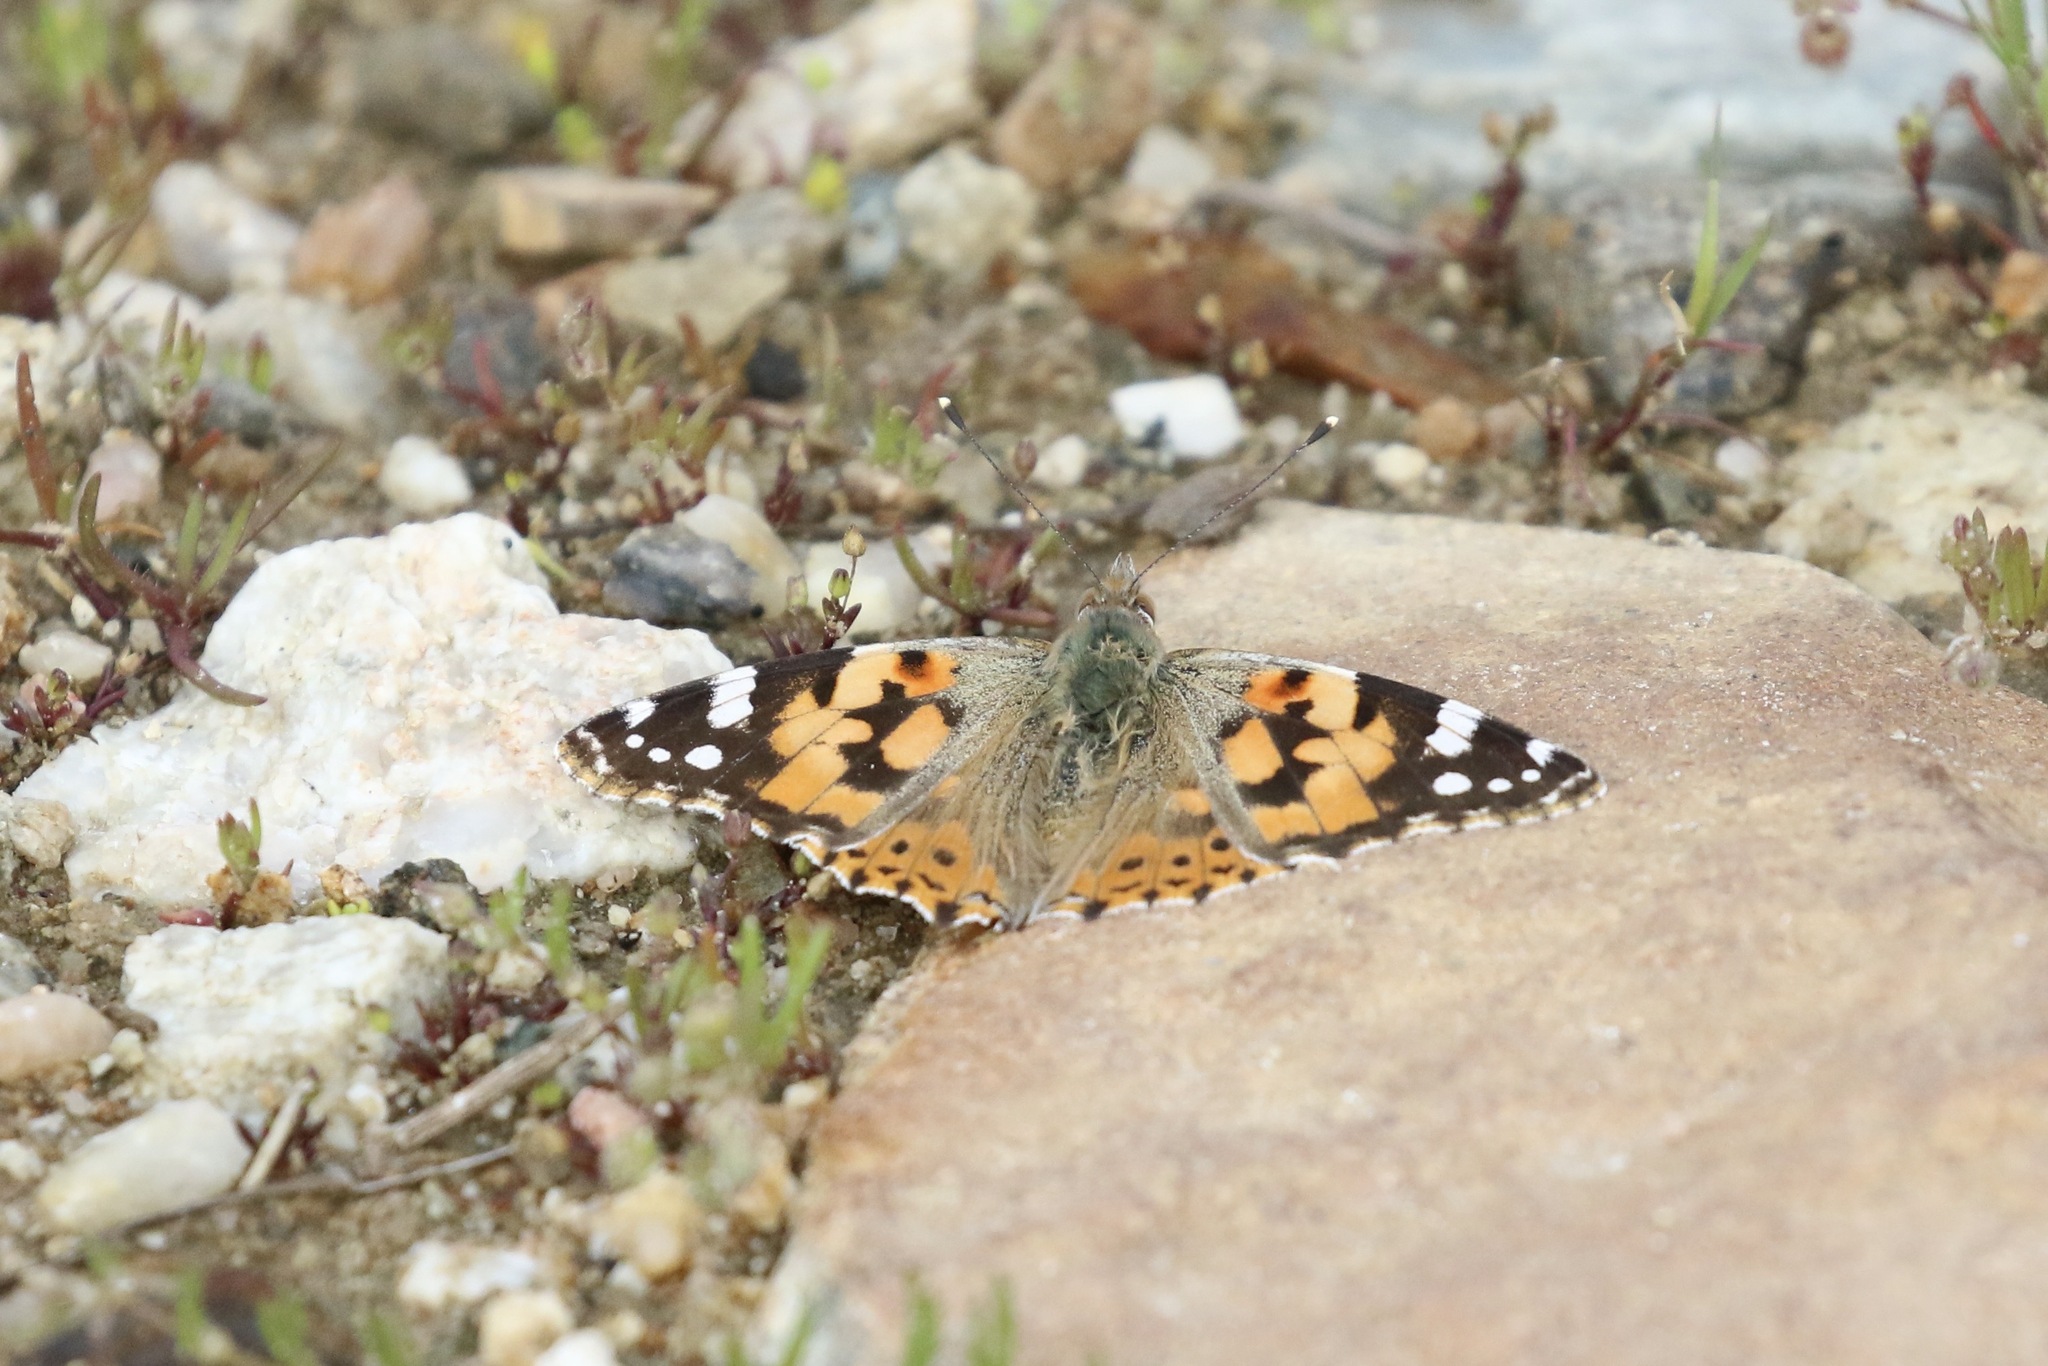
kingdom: Animalia
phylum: Arthropoda
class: Insecta
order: Lepidoptera
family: Nymphalidae
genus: Vanessa
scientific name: Vanessa cardui
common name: Painted lady
